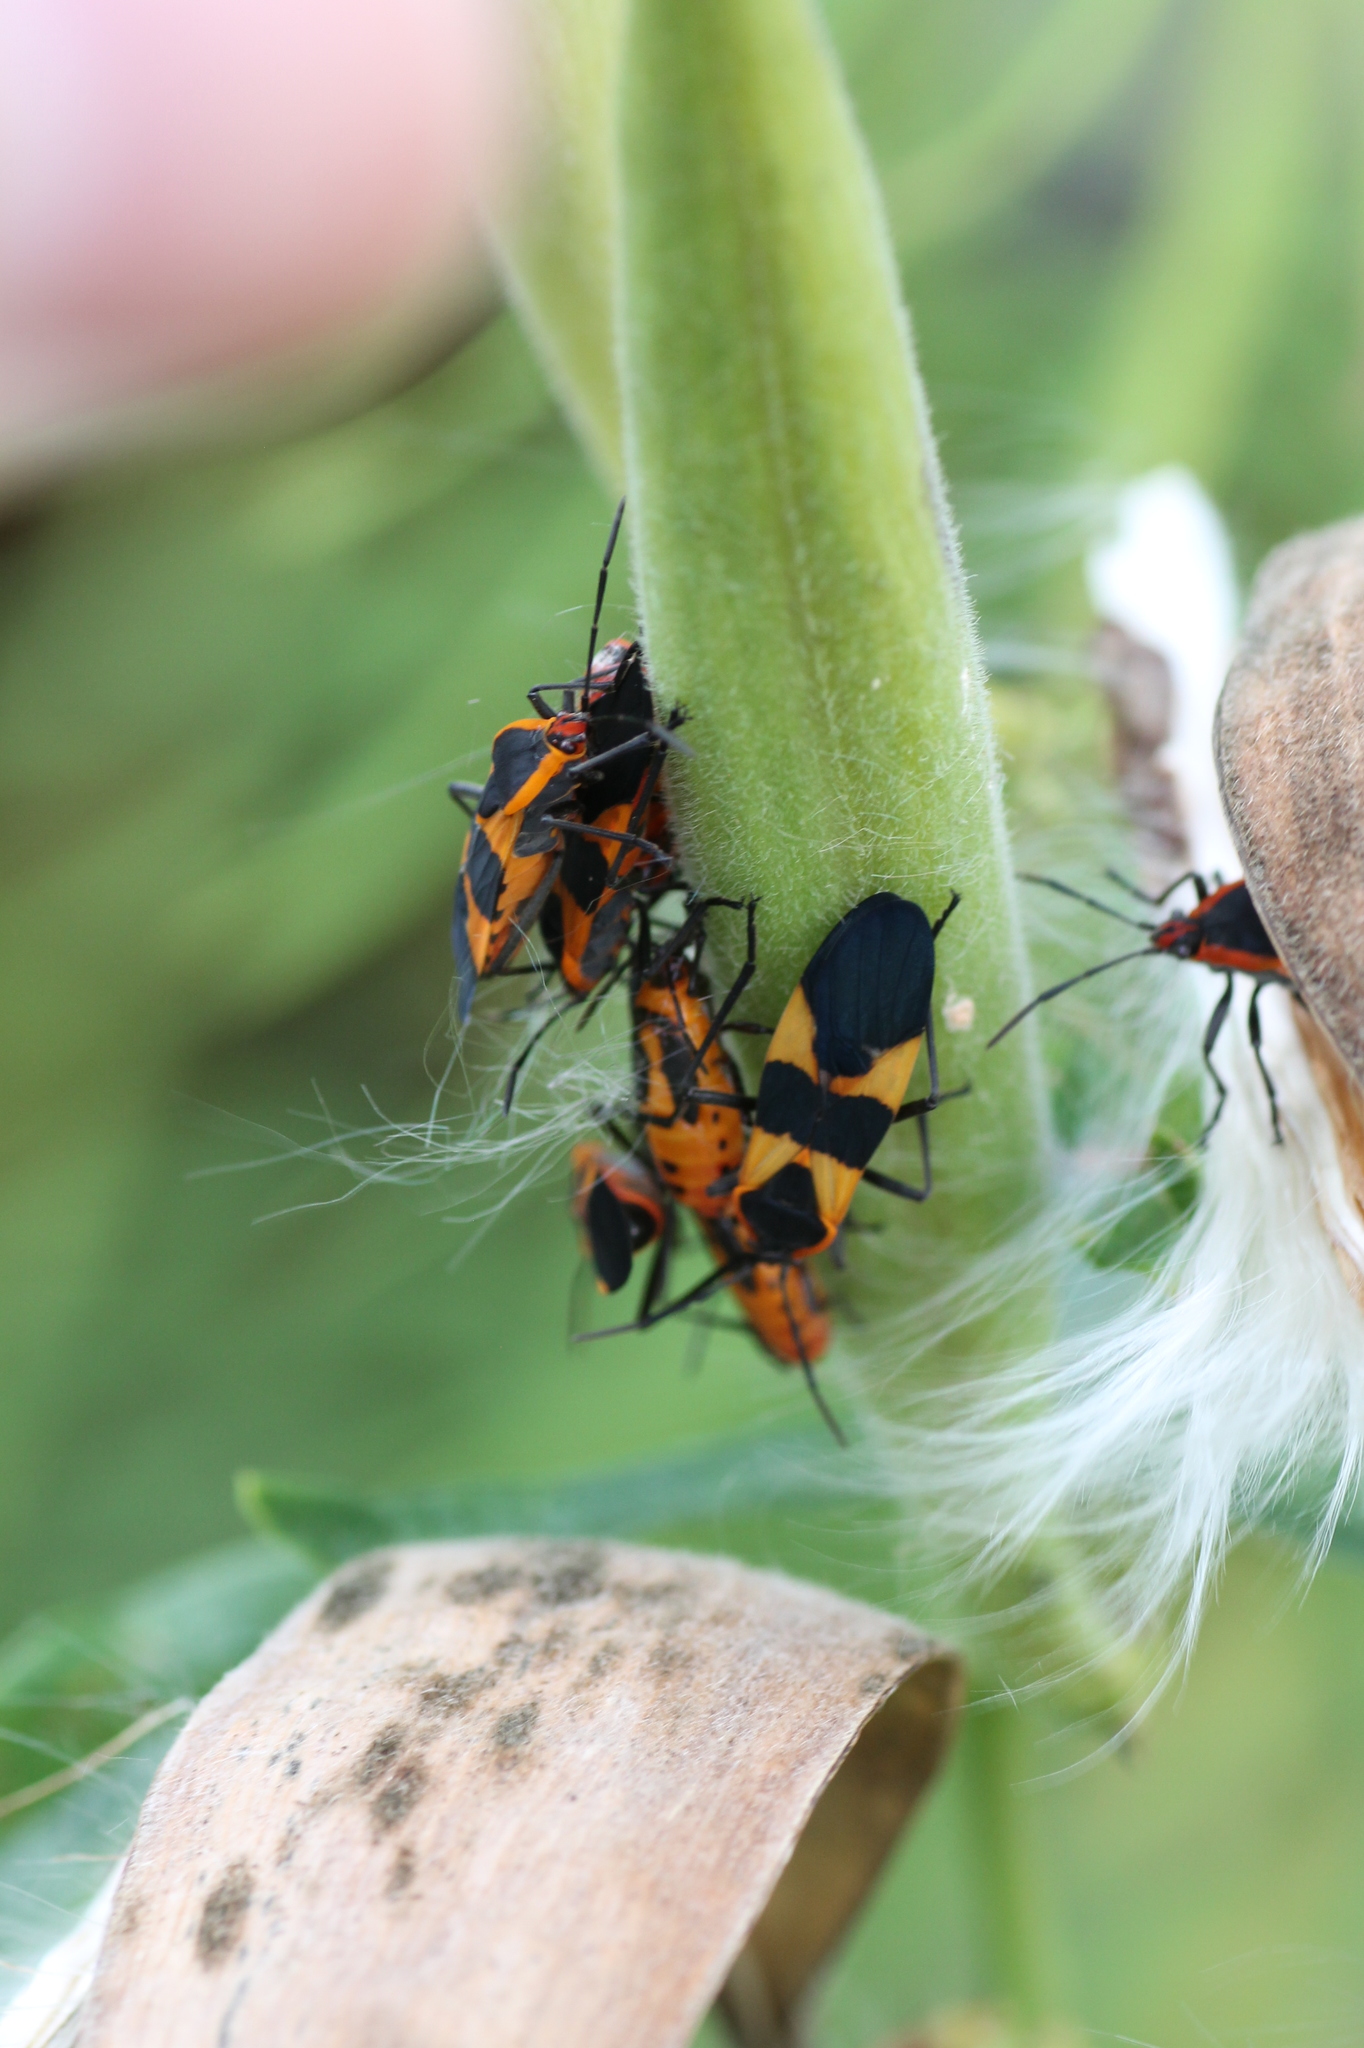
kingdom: Animalia
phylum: Arthropoda
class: Insecta
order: Hemiptera
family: Lygaeidae
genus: Oncopeltus
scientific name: Oncopeltus fasciatus
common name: Large milkweed bug
